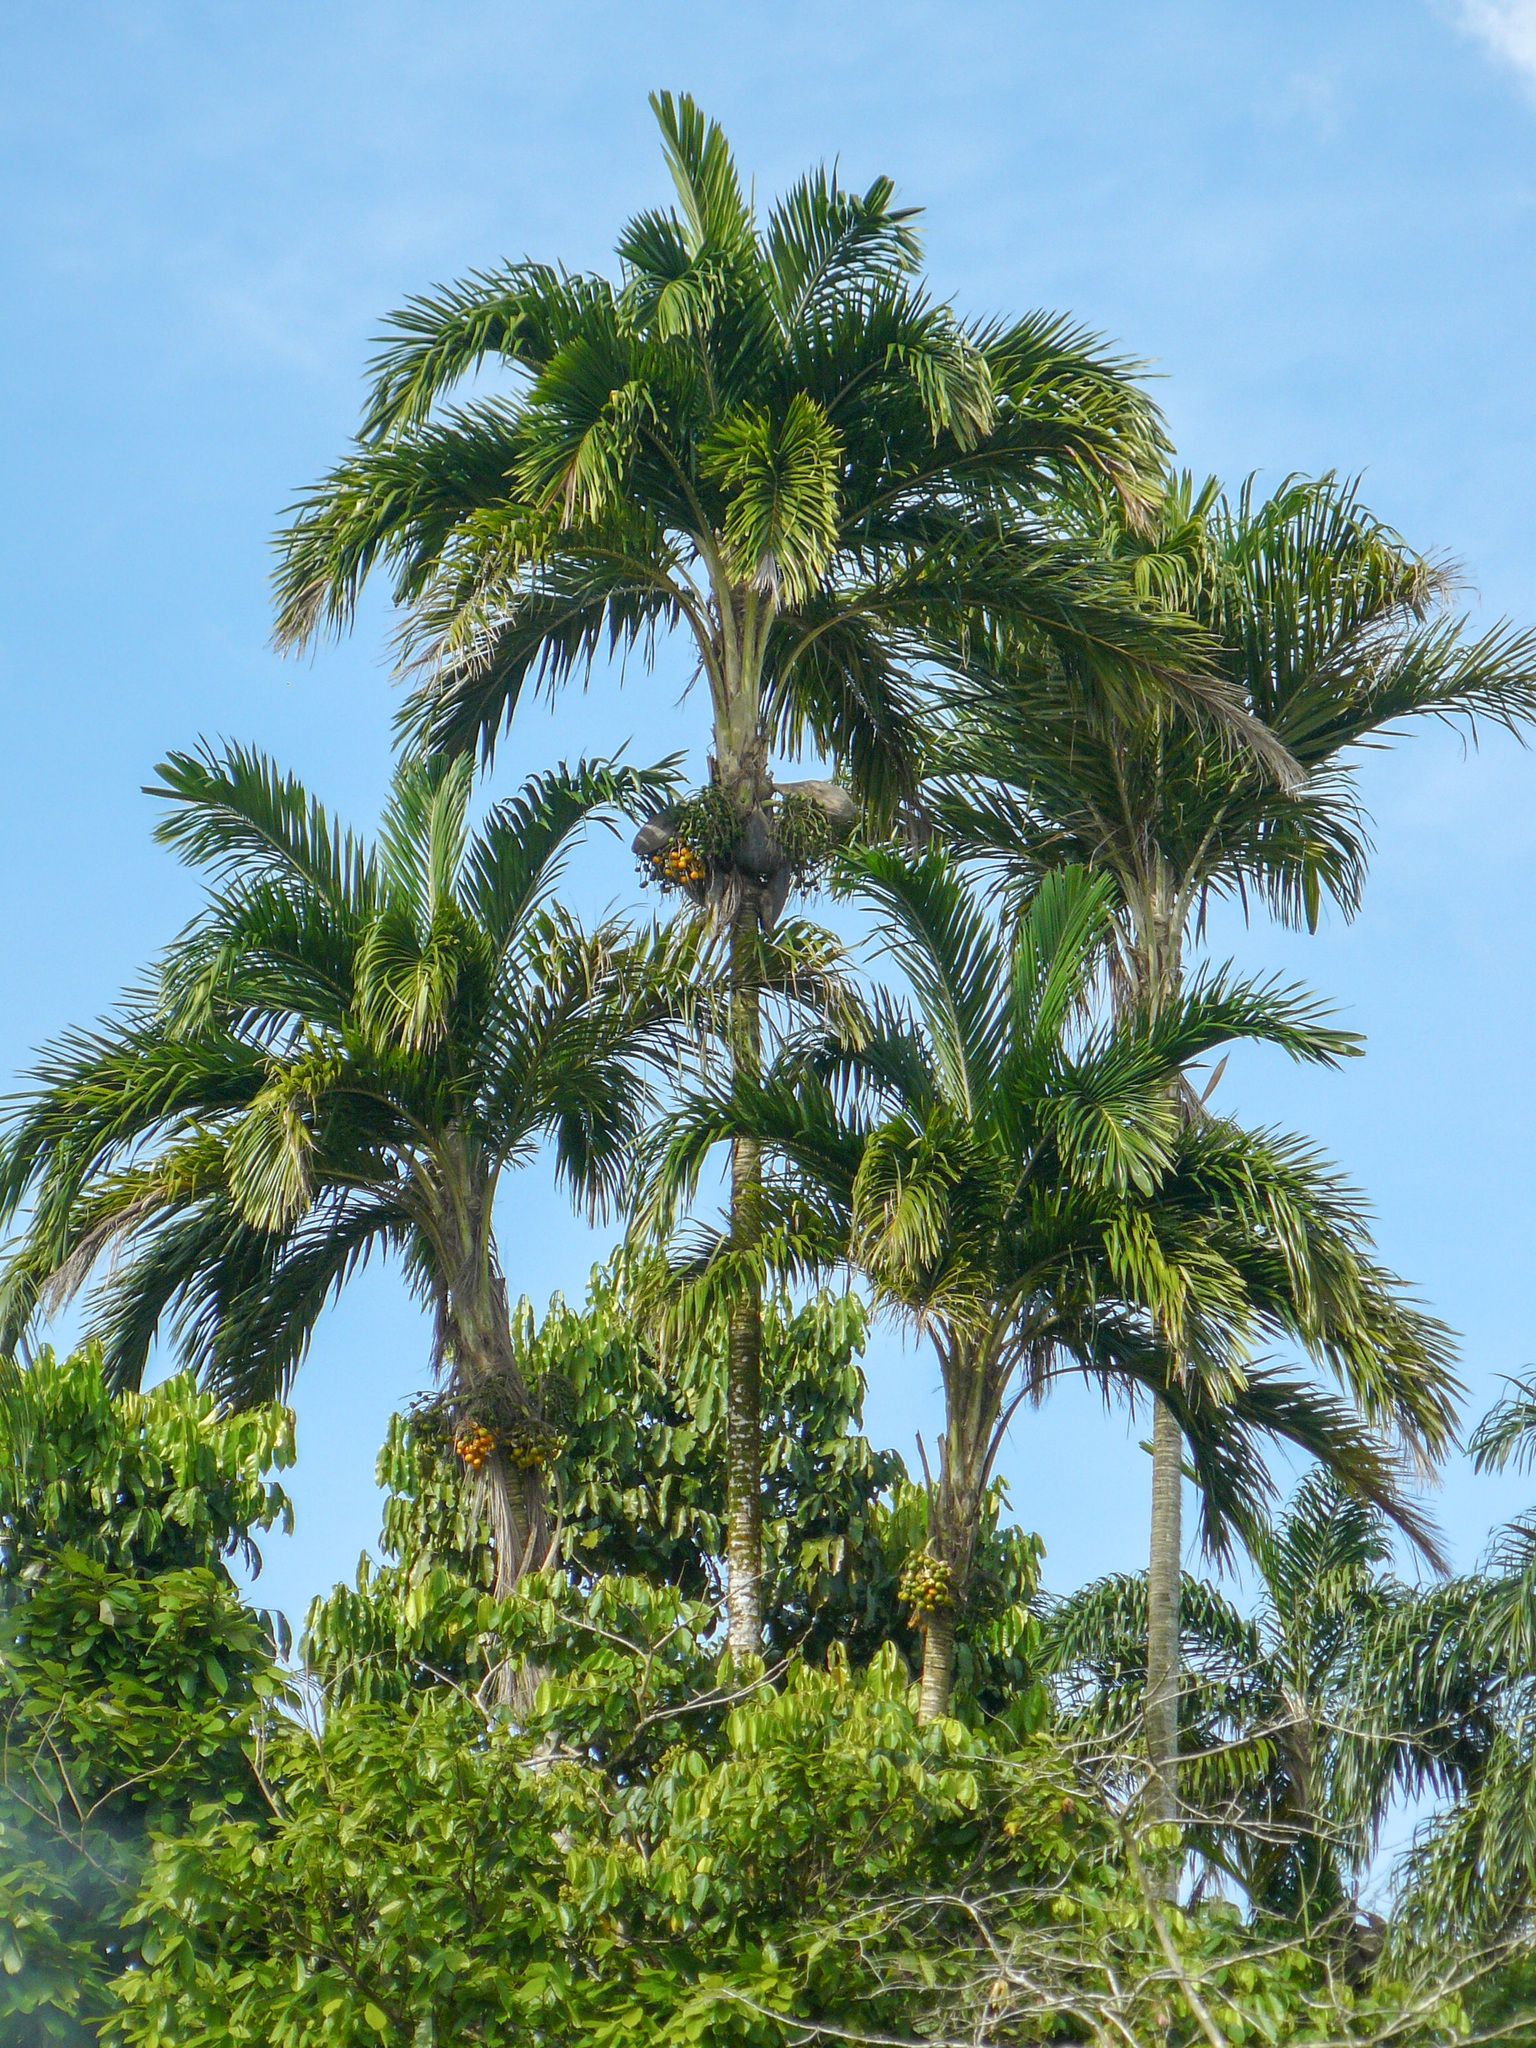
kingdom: Plantae
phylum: Tracheophyta
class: Liliopsida
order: Arecales
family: Arecaceae
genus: Bactris
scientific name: Bactris gasipaes
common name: Peach palm
